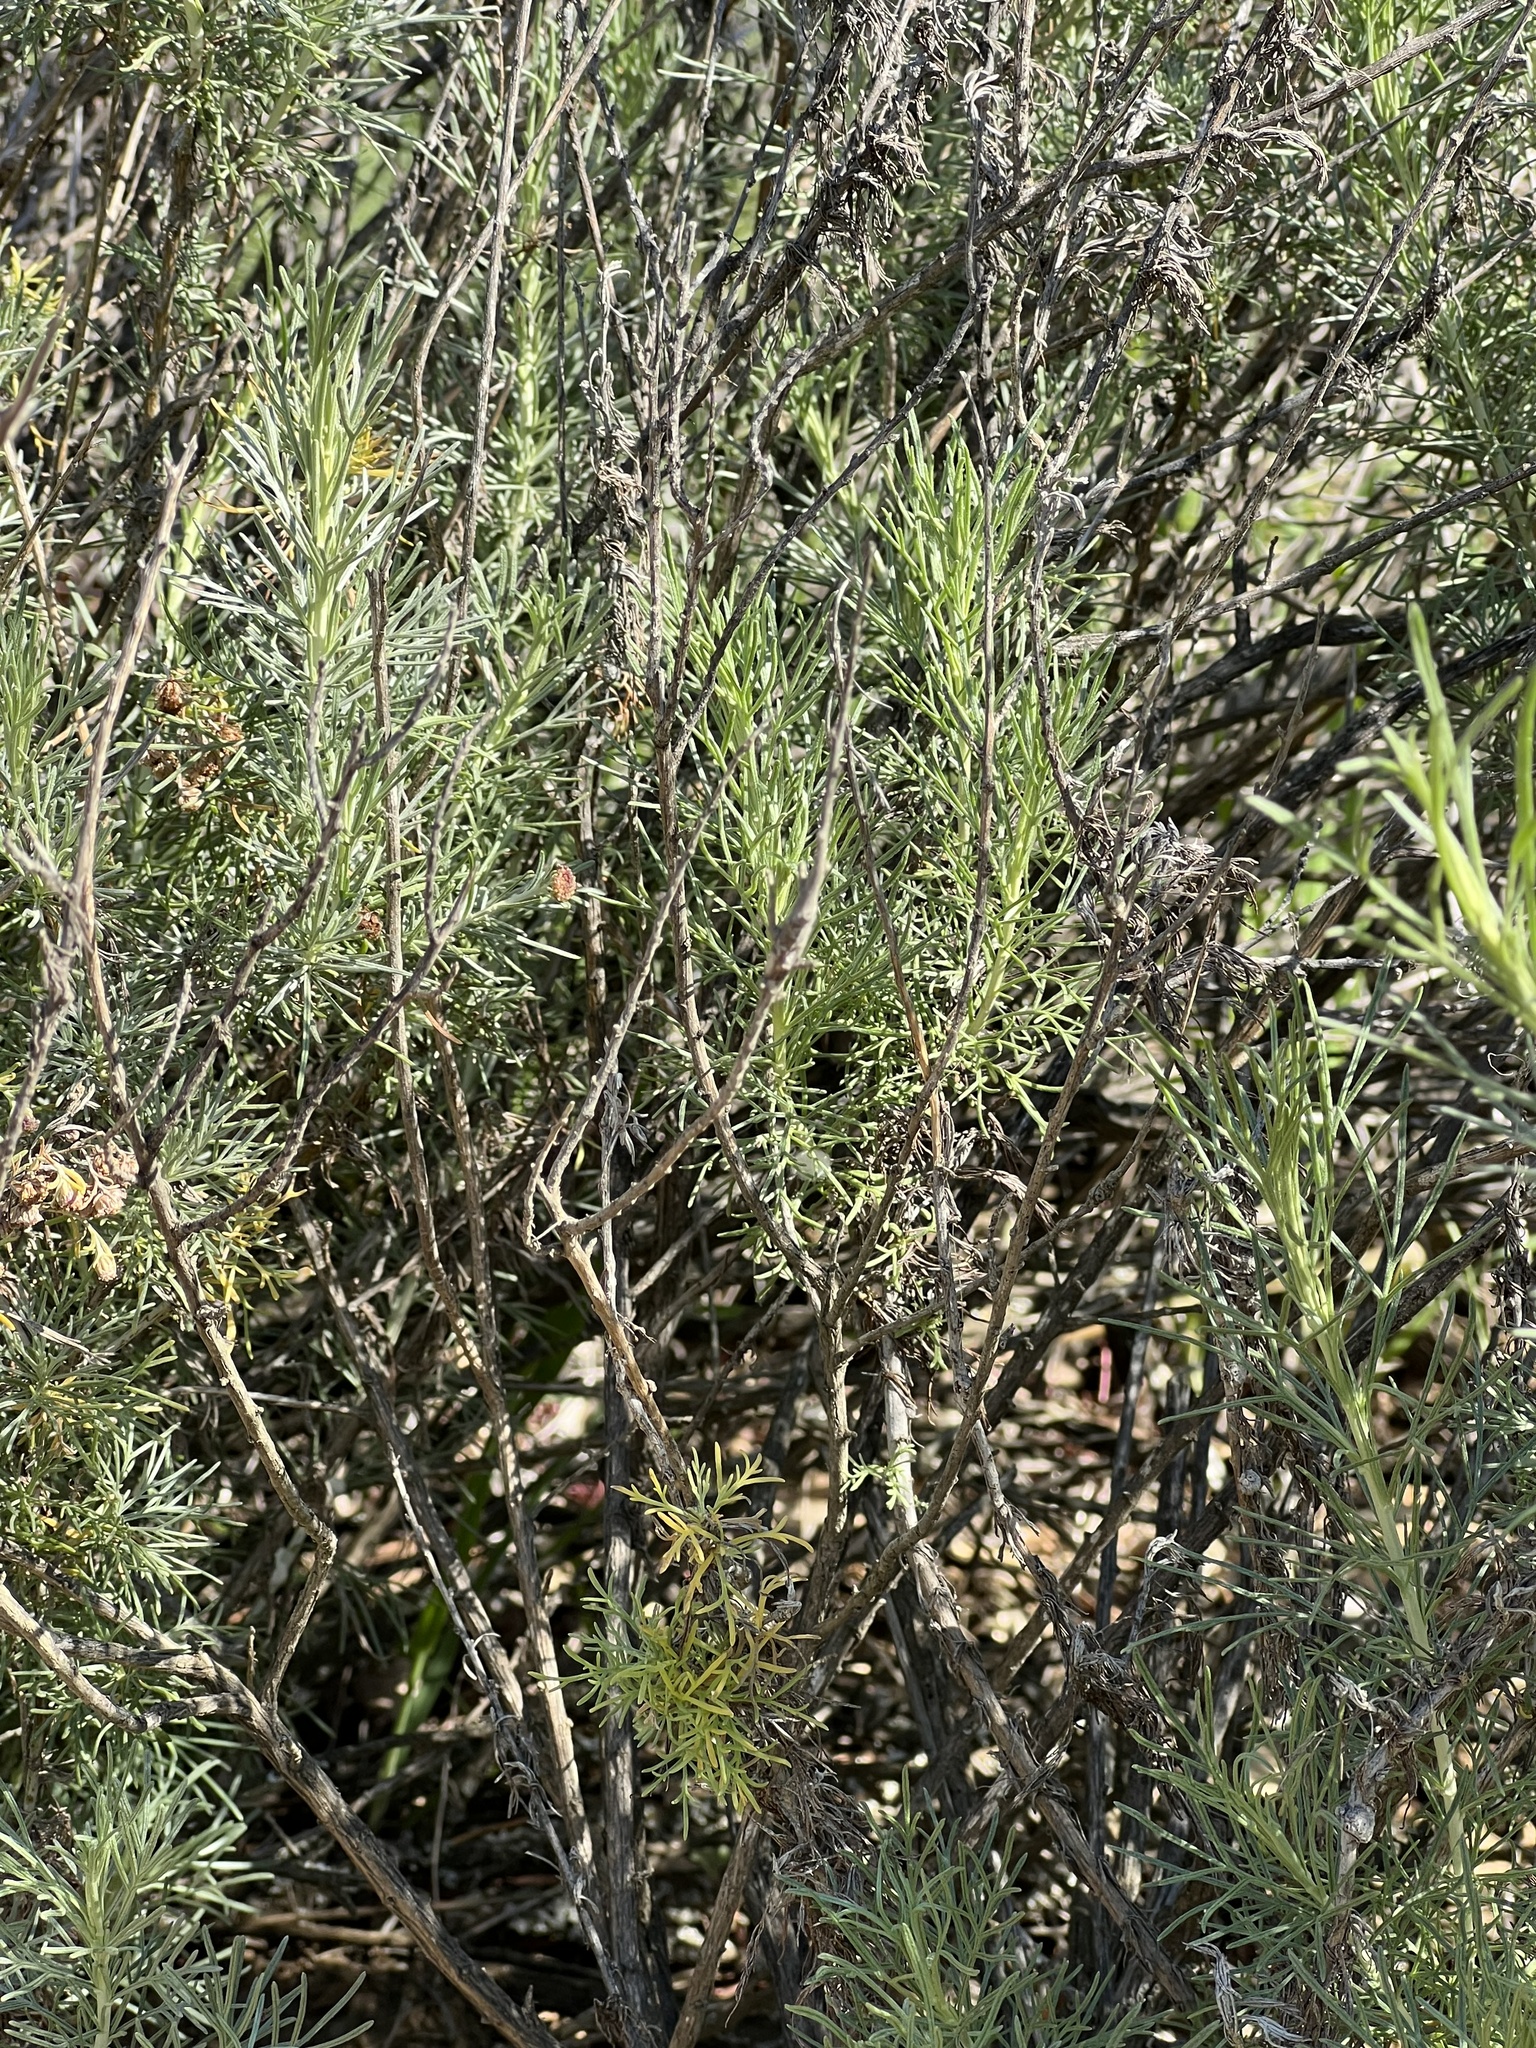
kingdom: Plantae
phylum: Tracheophyta
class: Magnoliopsida
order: Asterales
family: Asteraceae
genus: Artemisia
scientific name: Artemisia californica
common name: California sagebrush
